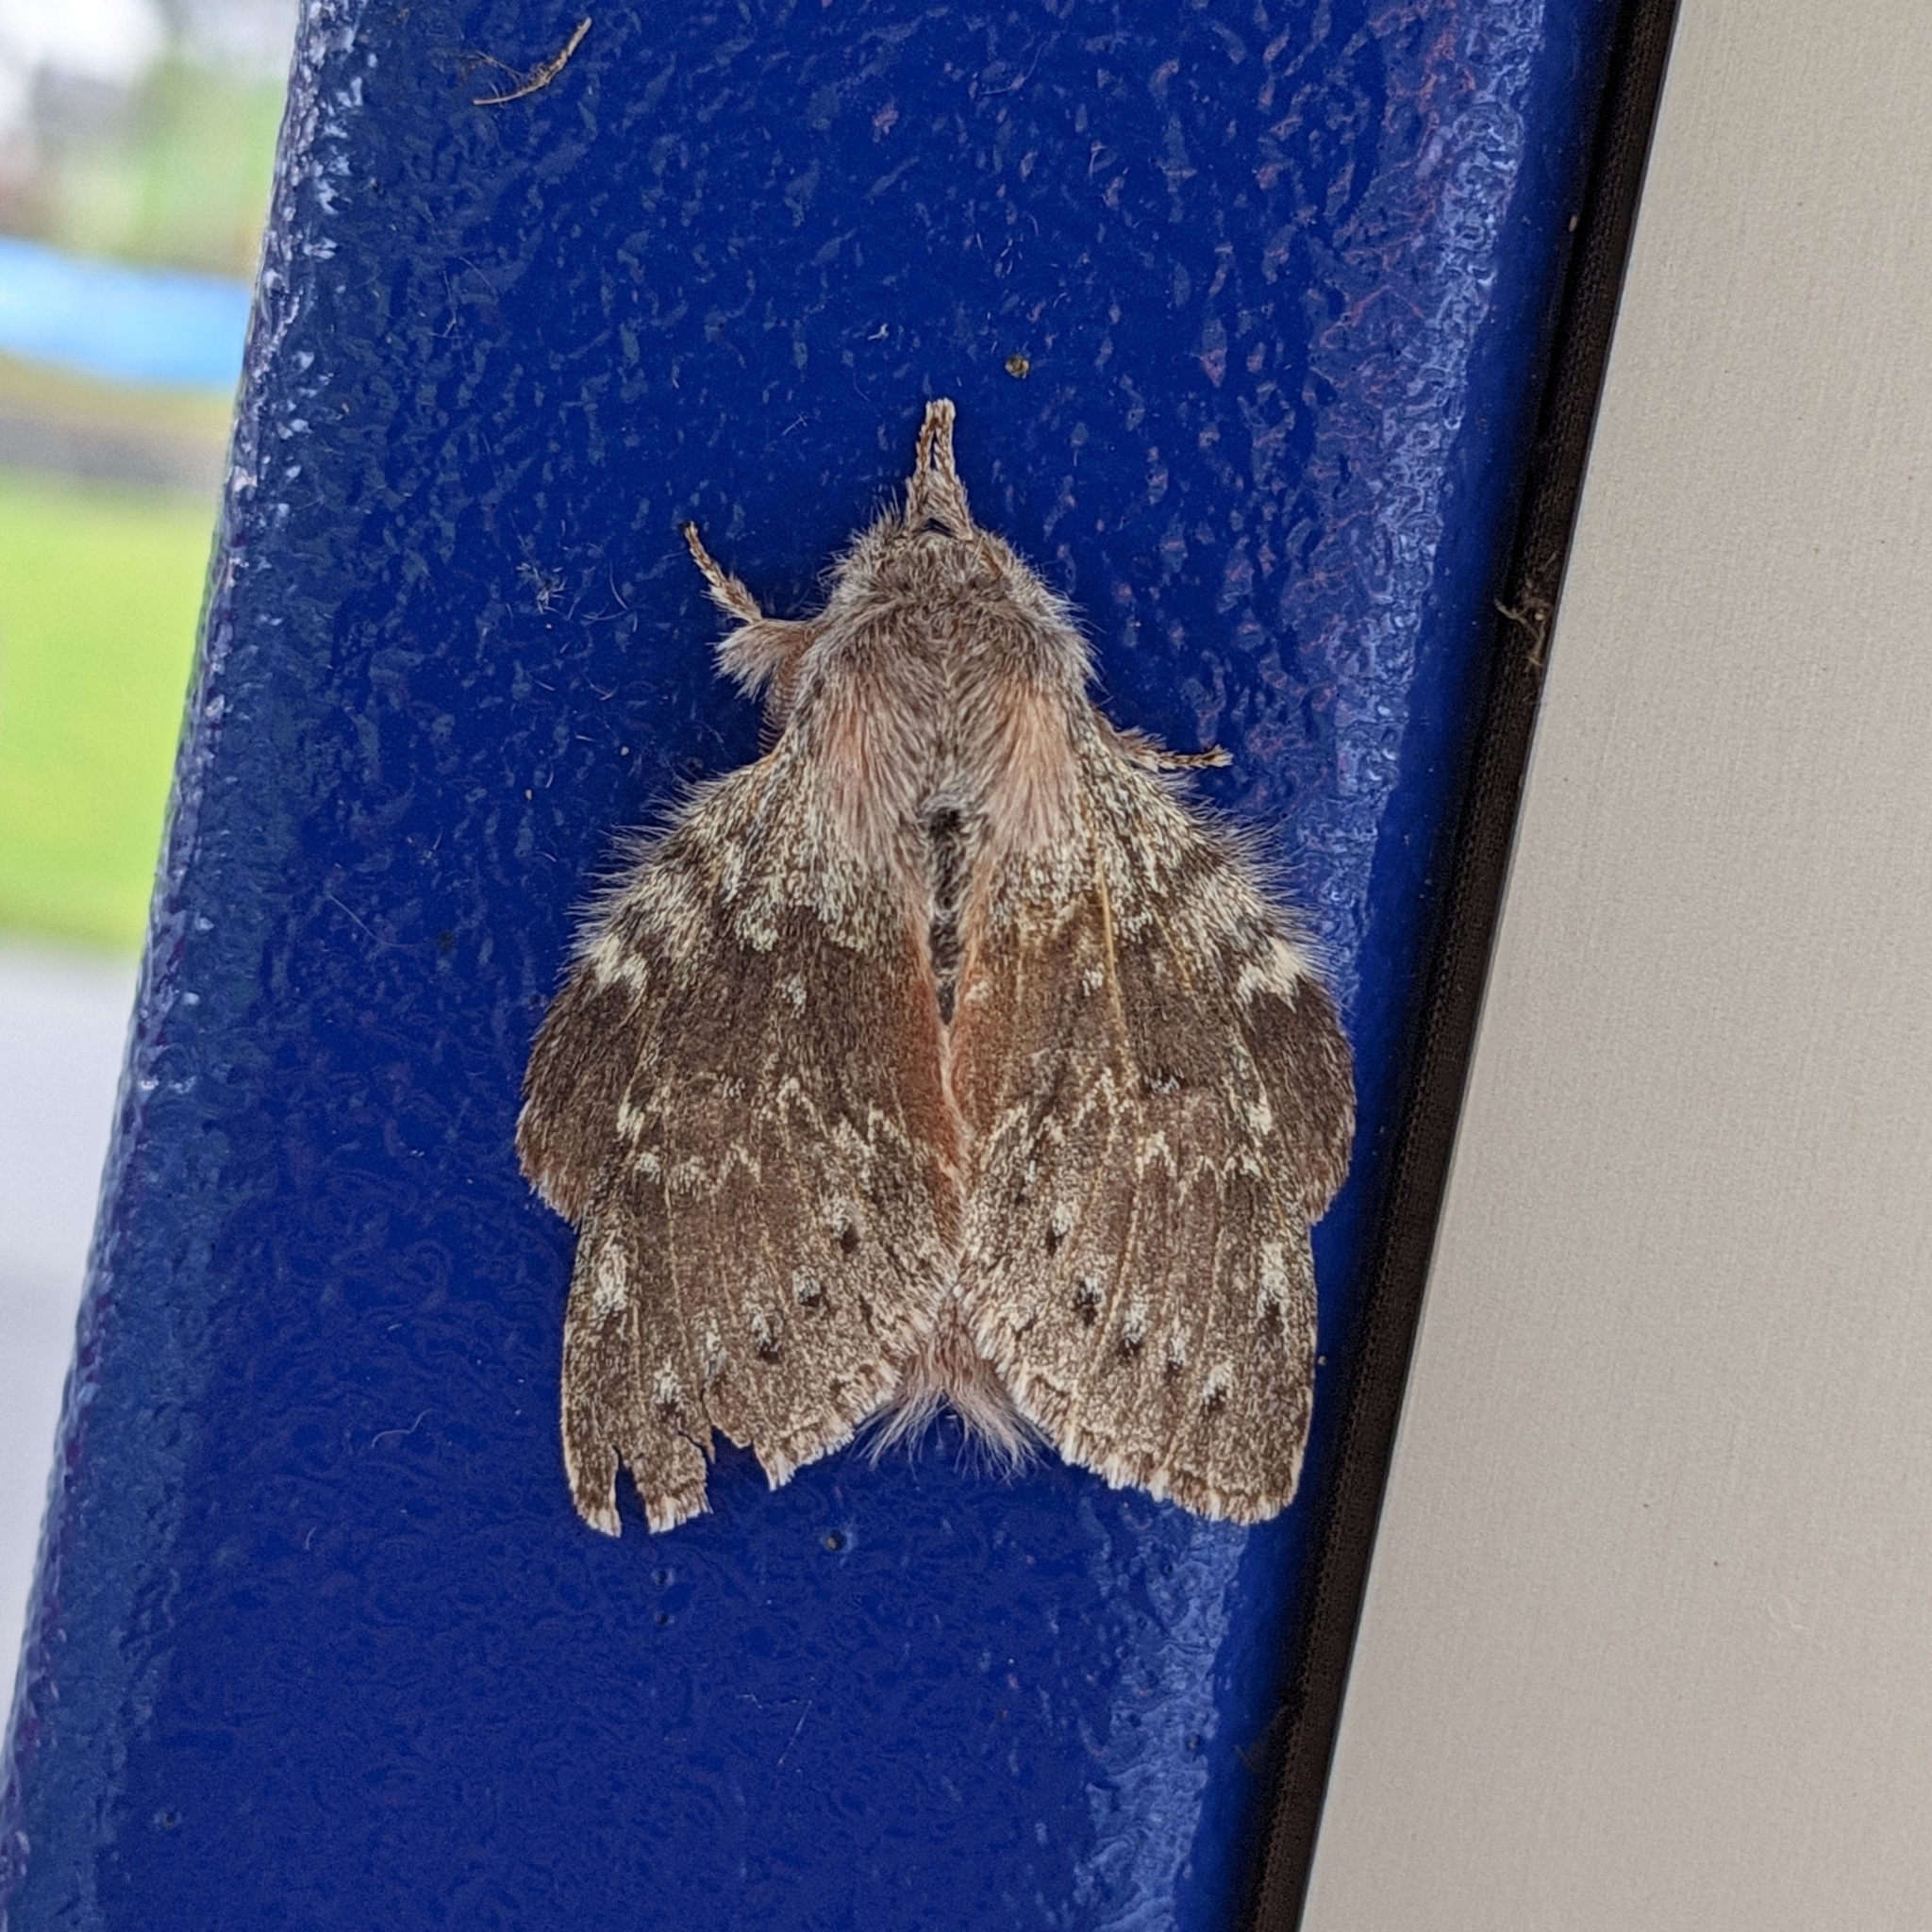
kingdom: Animalia
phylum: Arthropoda
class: Insecta
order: Lepidoptera
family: Notodontidae
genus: Stauropus
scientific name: Stauropus fagi
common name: Lobster moth
